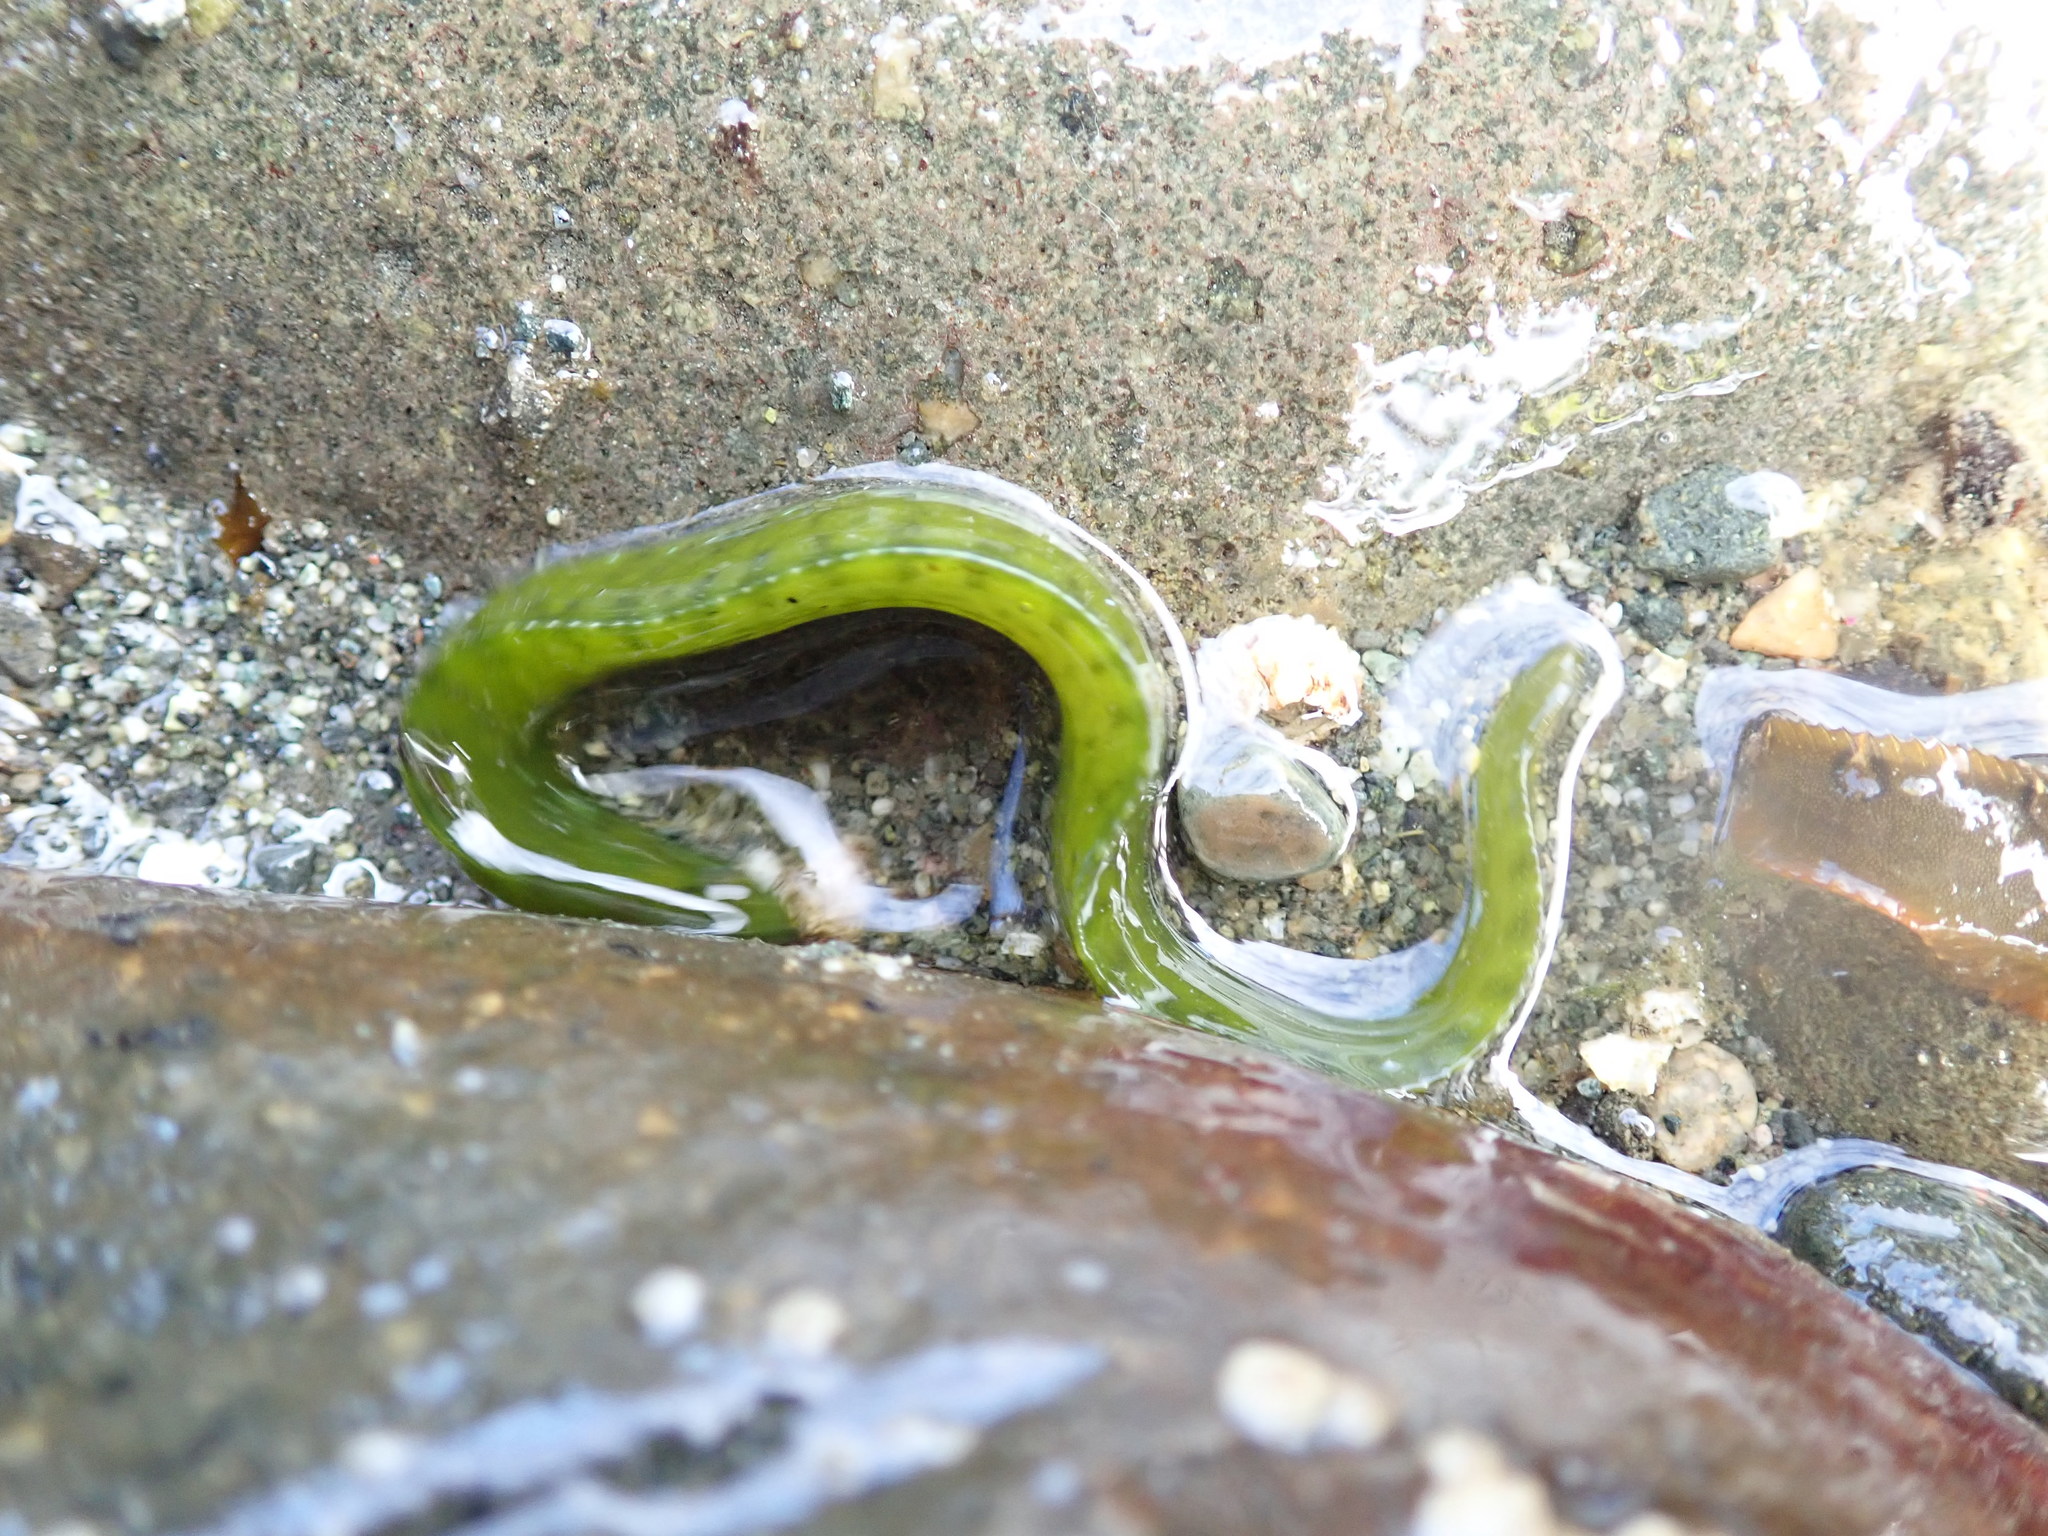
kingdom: Animalia
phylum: Chordata
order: Perciformes
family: Pholidae
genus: Apodichthys
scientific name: Apodichthys flavidus
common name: Penpoint gunnel
